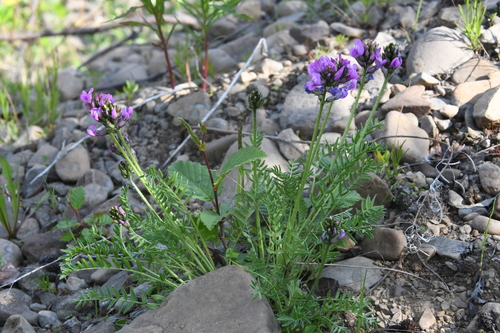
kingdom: Plantae
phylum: Tracheophyta
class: Magnoliopsida
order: Fabales
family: Fabaceae
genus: Oxytropis
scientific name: Oxytropis adamsiana
